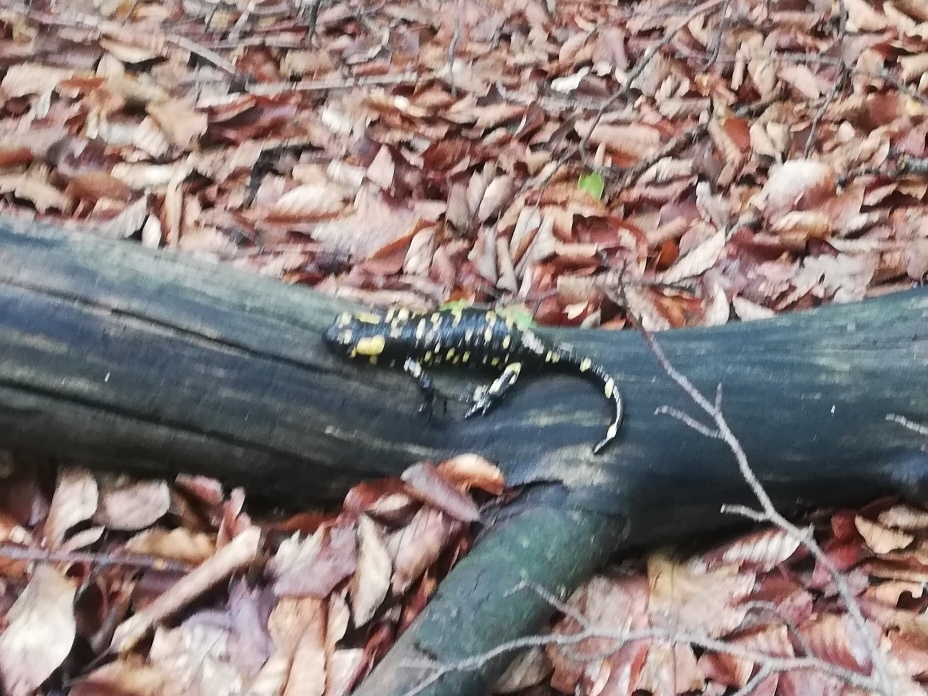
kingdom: Animalia
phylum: Chordata
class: Amphibia
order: Caudata
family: Salamandridae
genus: Salamandra
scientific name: Salamandra salamandra
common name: Fire salamander
